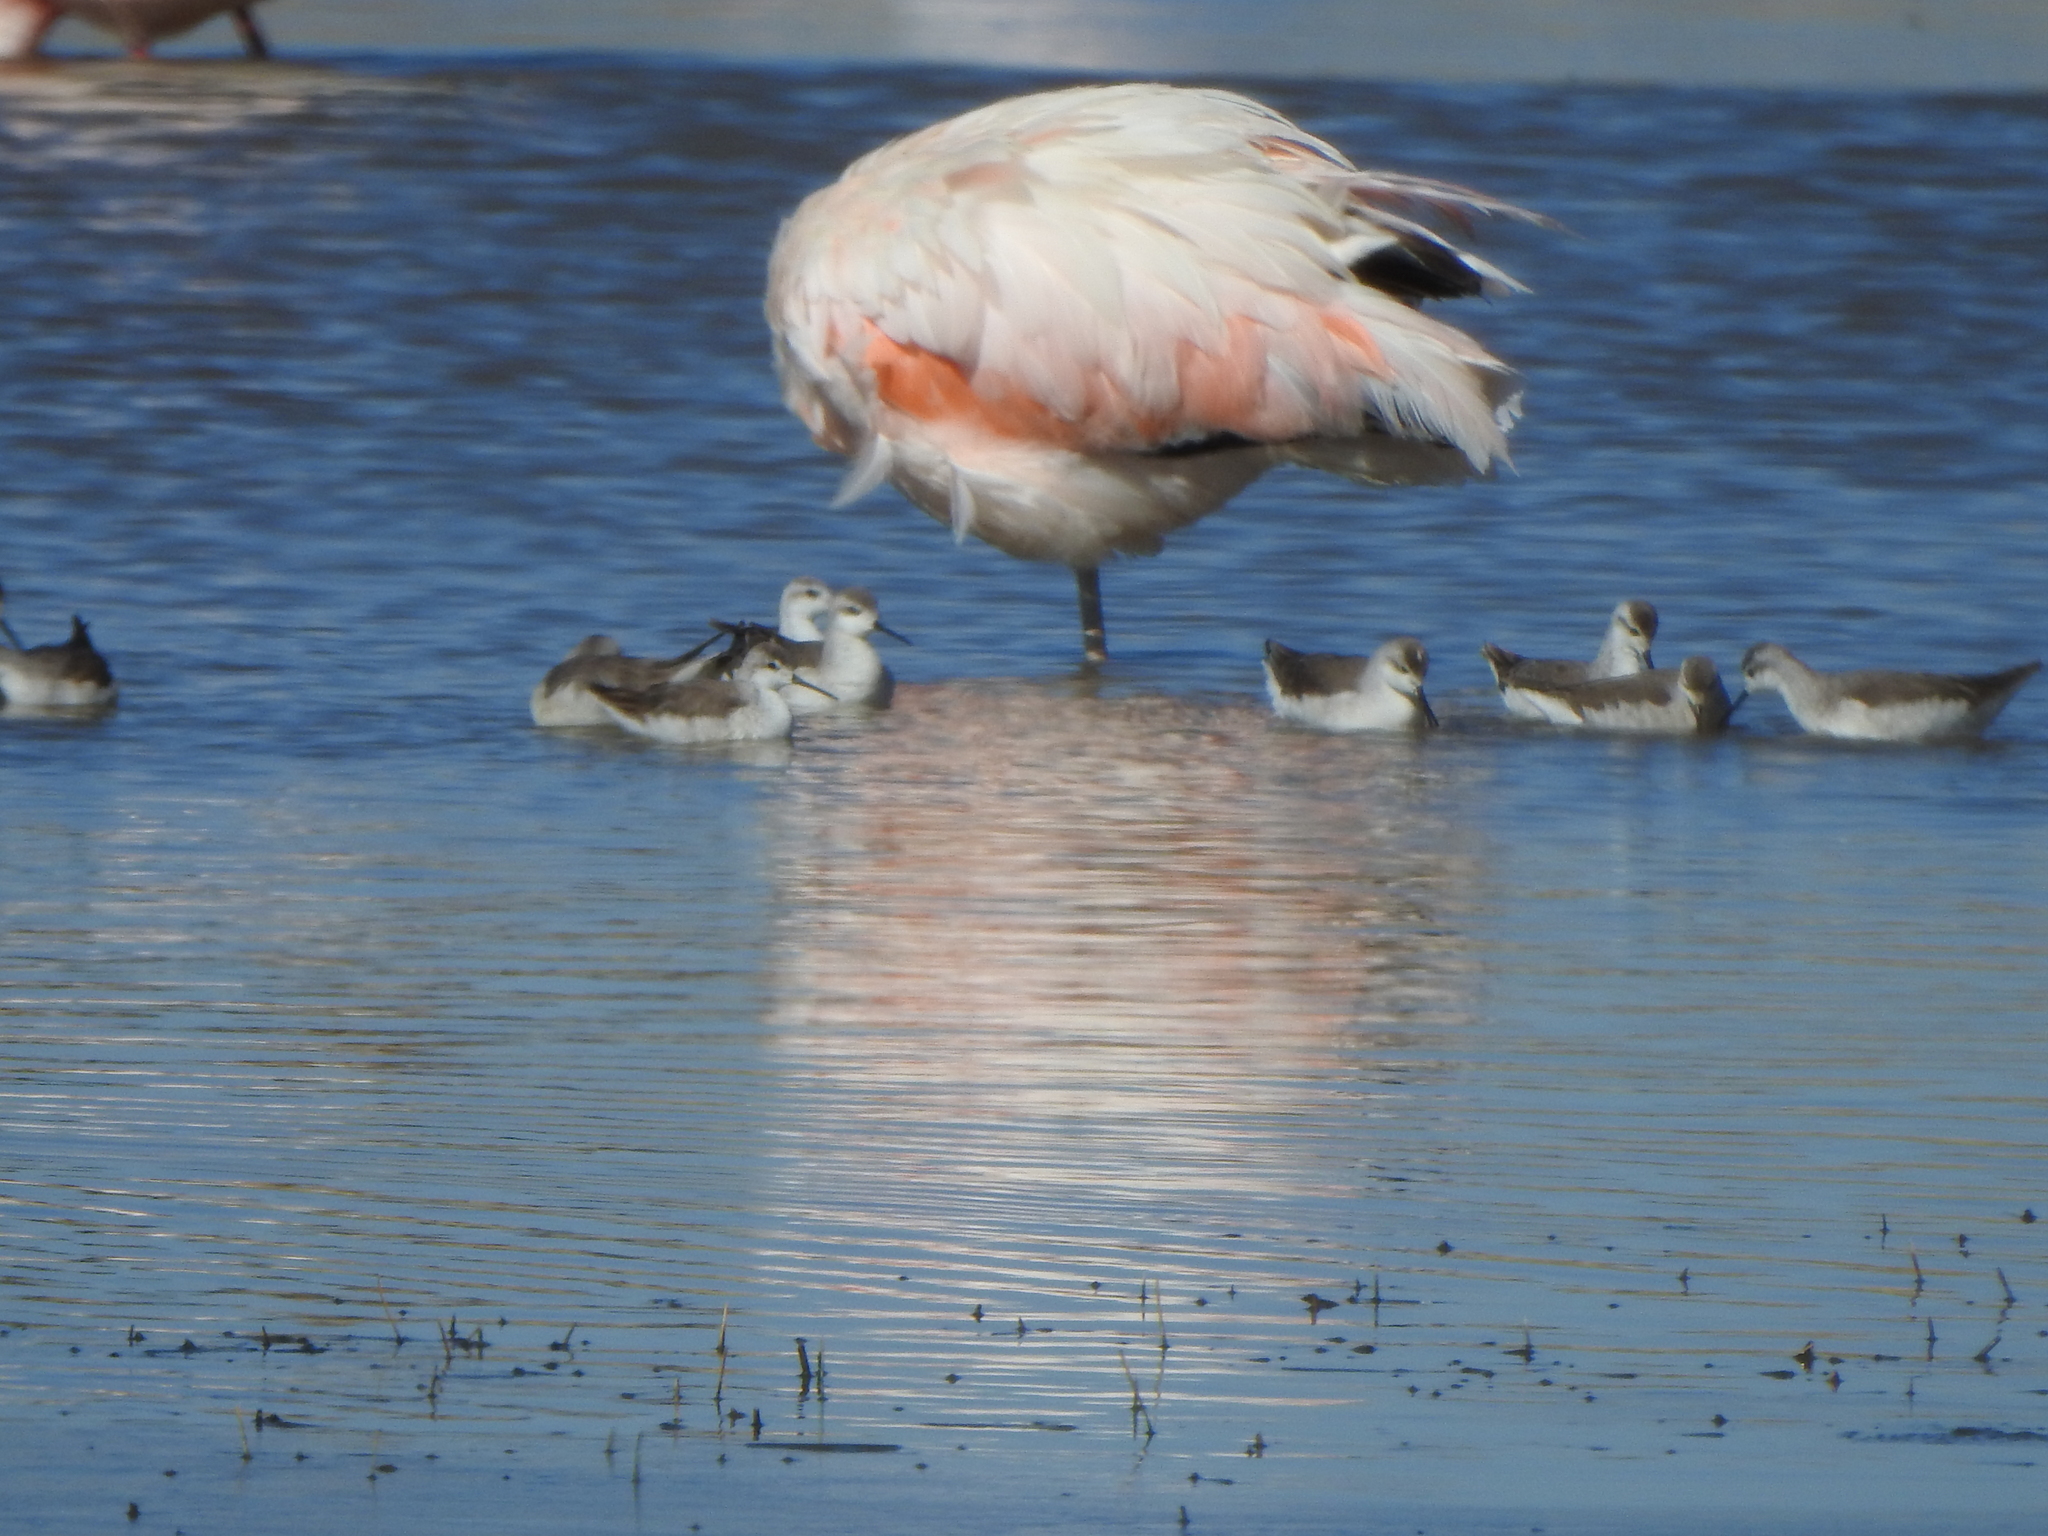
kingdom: Animalia
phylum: Chordata
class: Aves
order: Charadriiformes
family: Scolopacidae
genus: Phalaropus
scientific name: Phalaropus tricolor
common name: Wilson's phalarope
